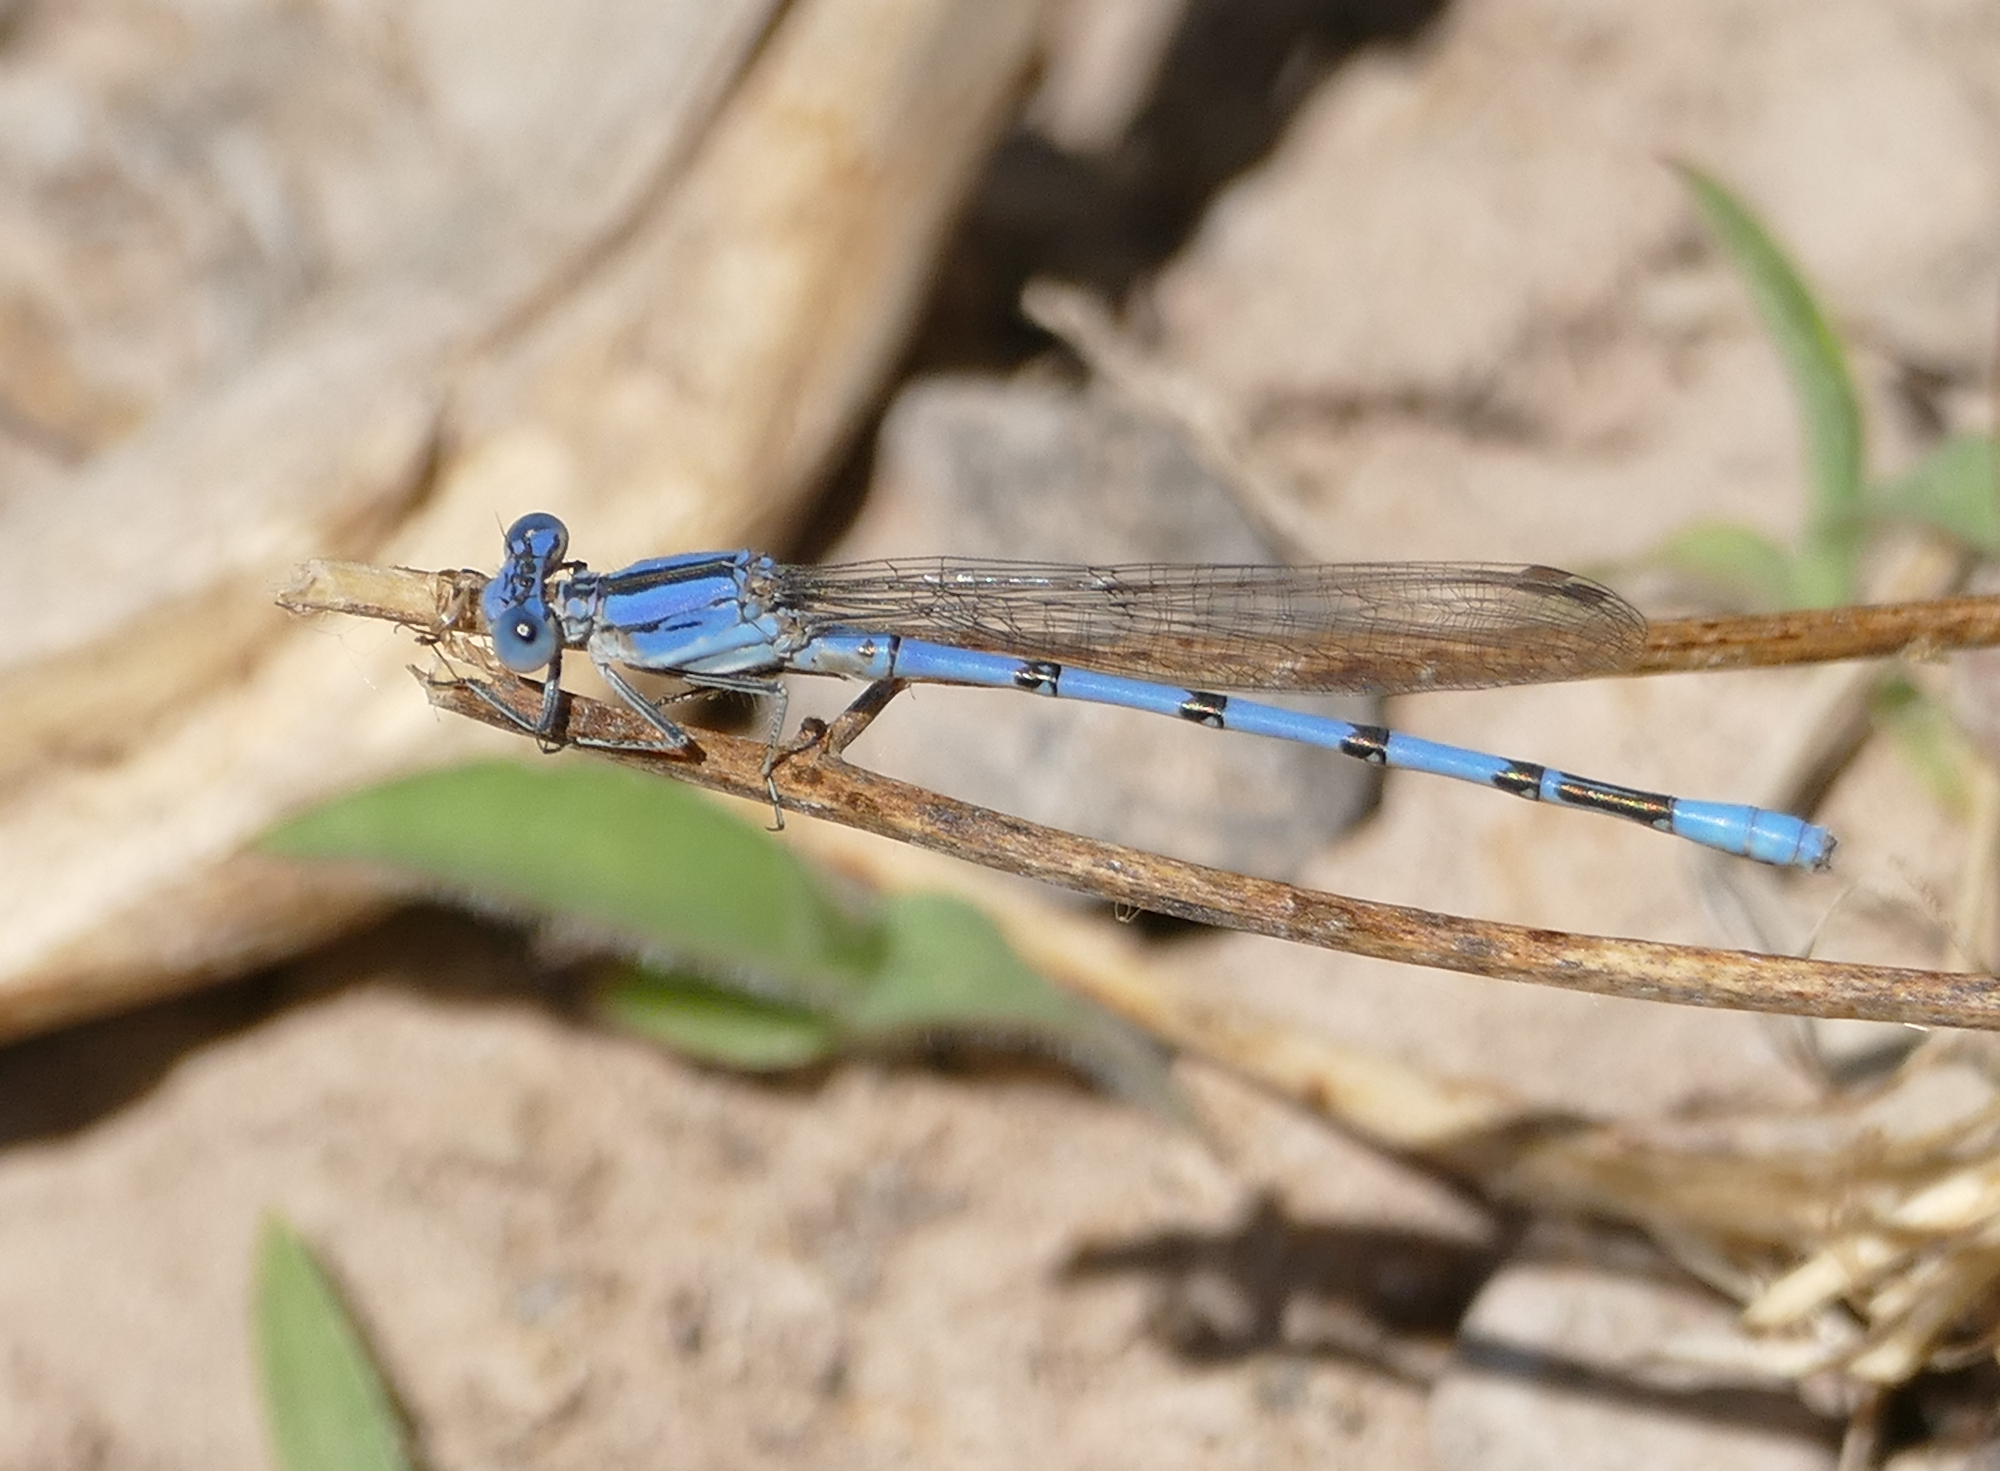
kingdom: Animalia
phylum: Arthropoda
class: Insecta
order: Odonata
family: Coenagrionidae
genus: Argia
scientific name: Argia nahuana
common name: Aztec dancer
